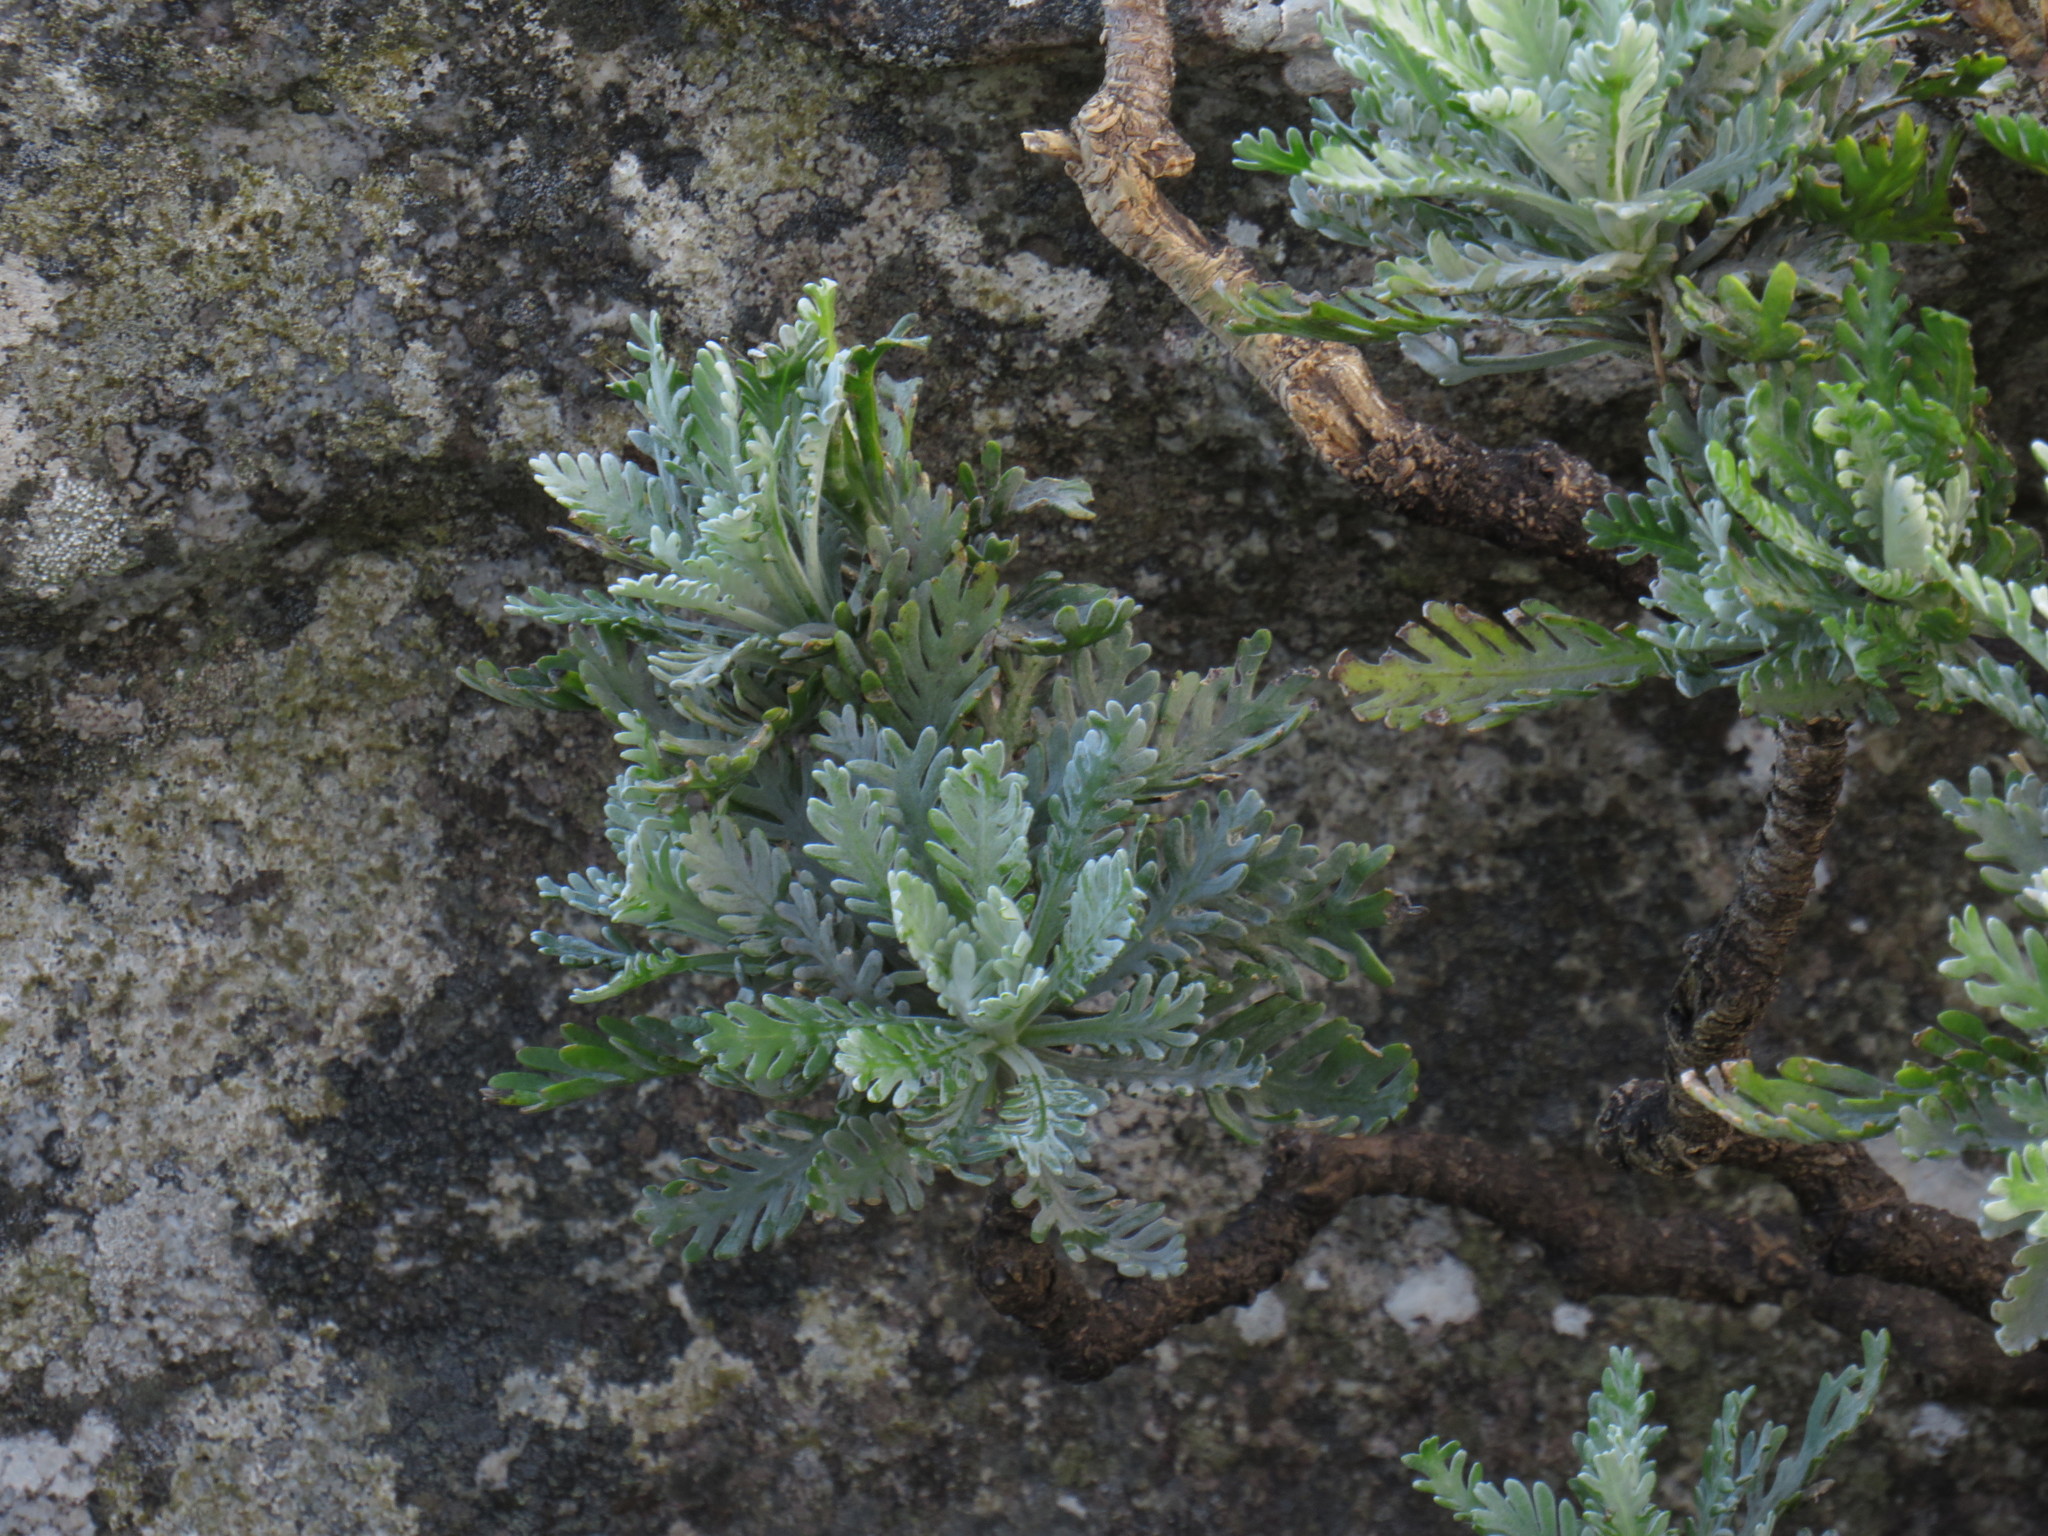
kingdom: Plantae
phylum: Tracheophyta
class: Magnoliopsida
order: Asterales
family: Asteraceae
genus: Euryops
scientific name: Euryops pectinatus
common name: Gray-leaf euryops
